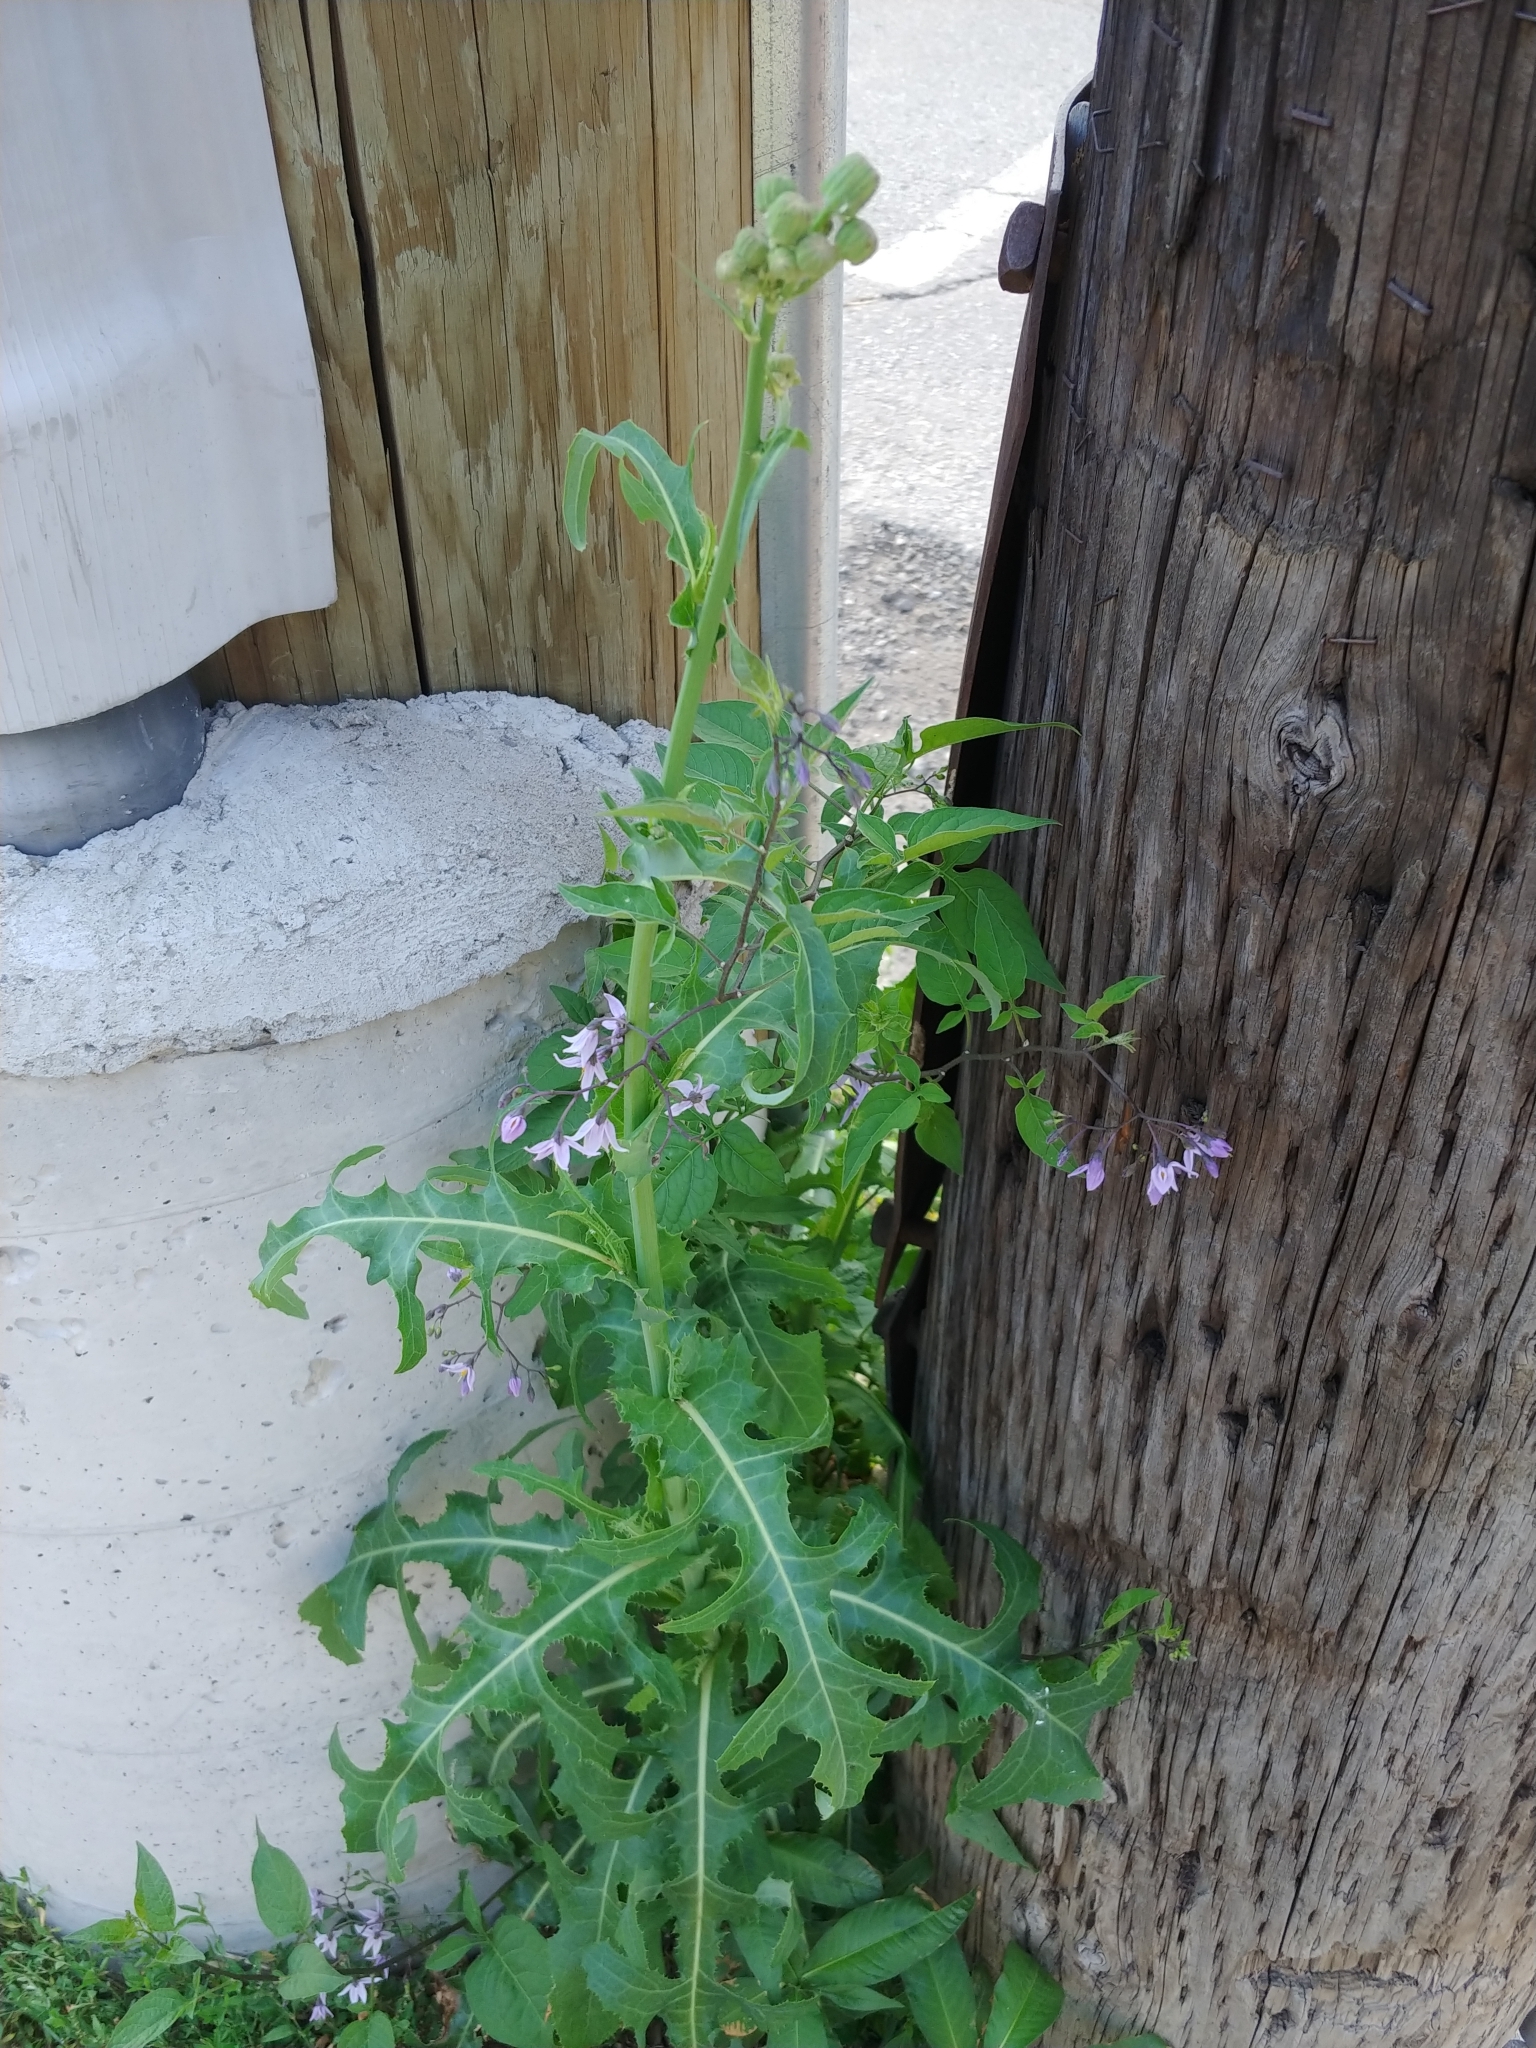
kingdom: Plantae
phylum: Tracheophyta
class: Magnoliopsida
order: Solanales
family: Solanaceae
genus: Solanum
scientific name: Solanum dulcamara
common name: Climbing nightshade
